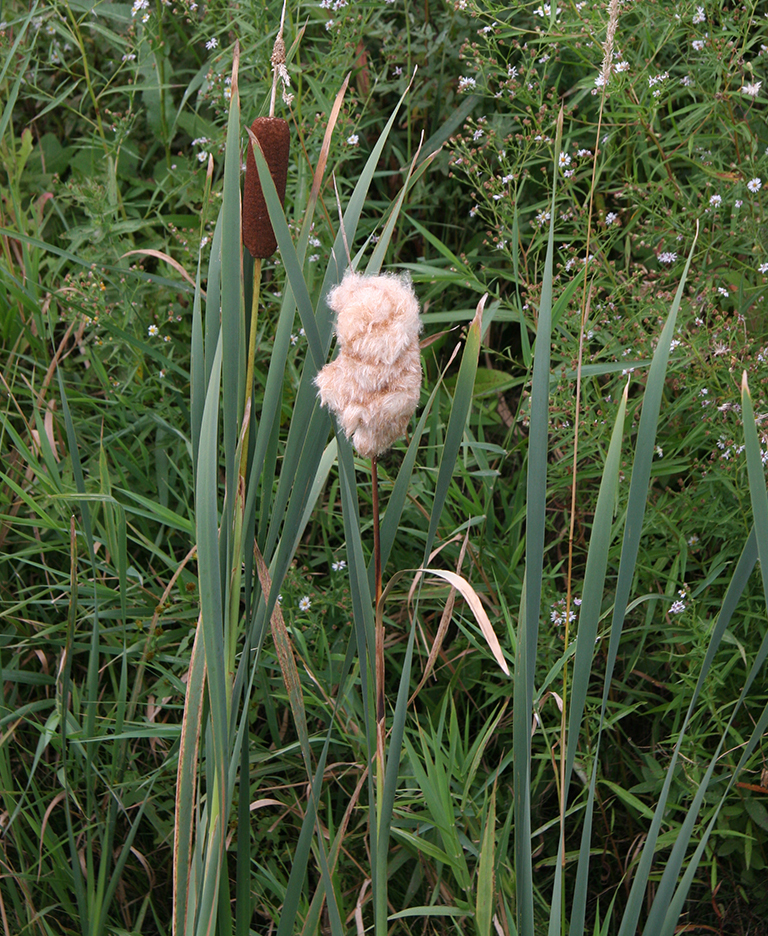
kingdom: Plantae
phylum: Tracheophyta
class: Liliopsida
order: Poales
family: Typhaceae
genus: Typha
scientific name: Typha latifolia
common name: Broadleaf cattail
